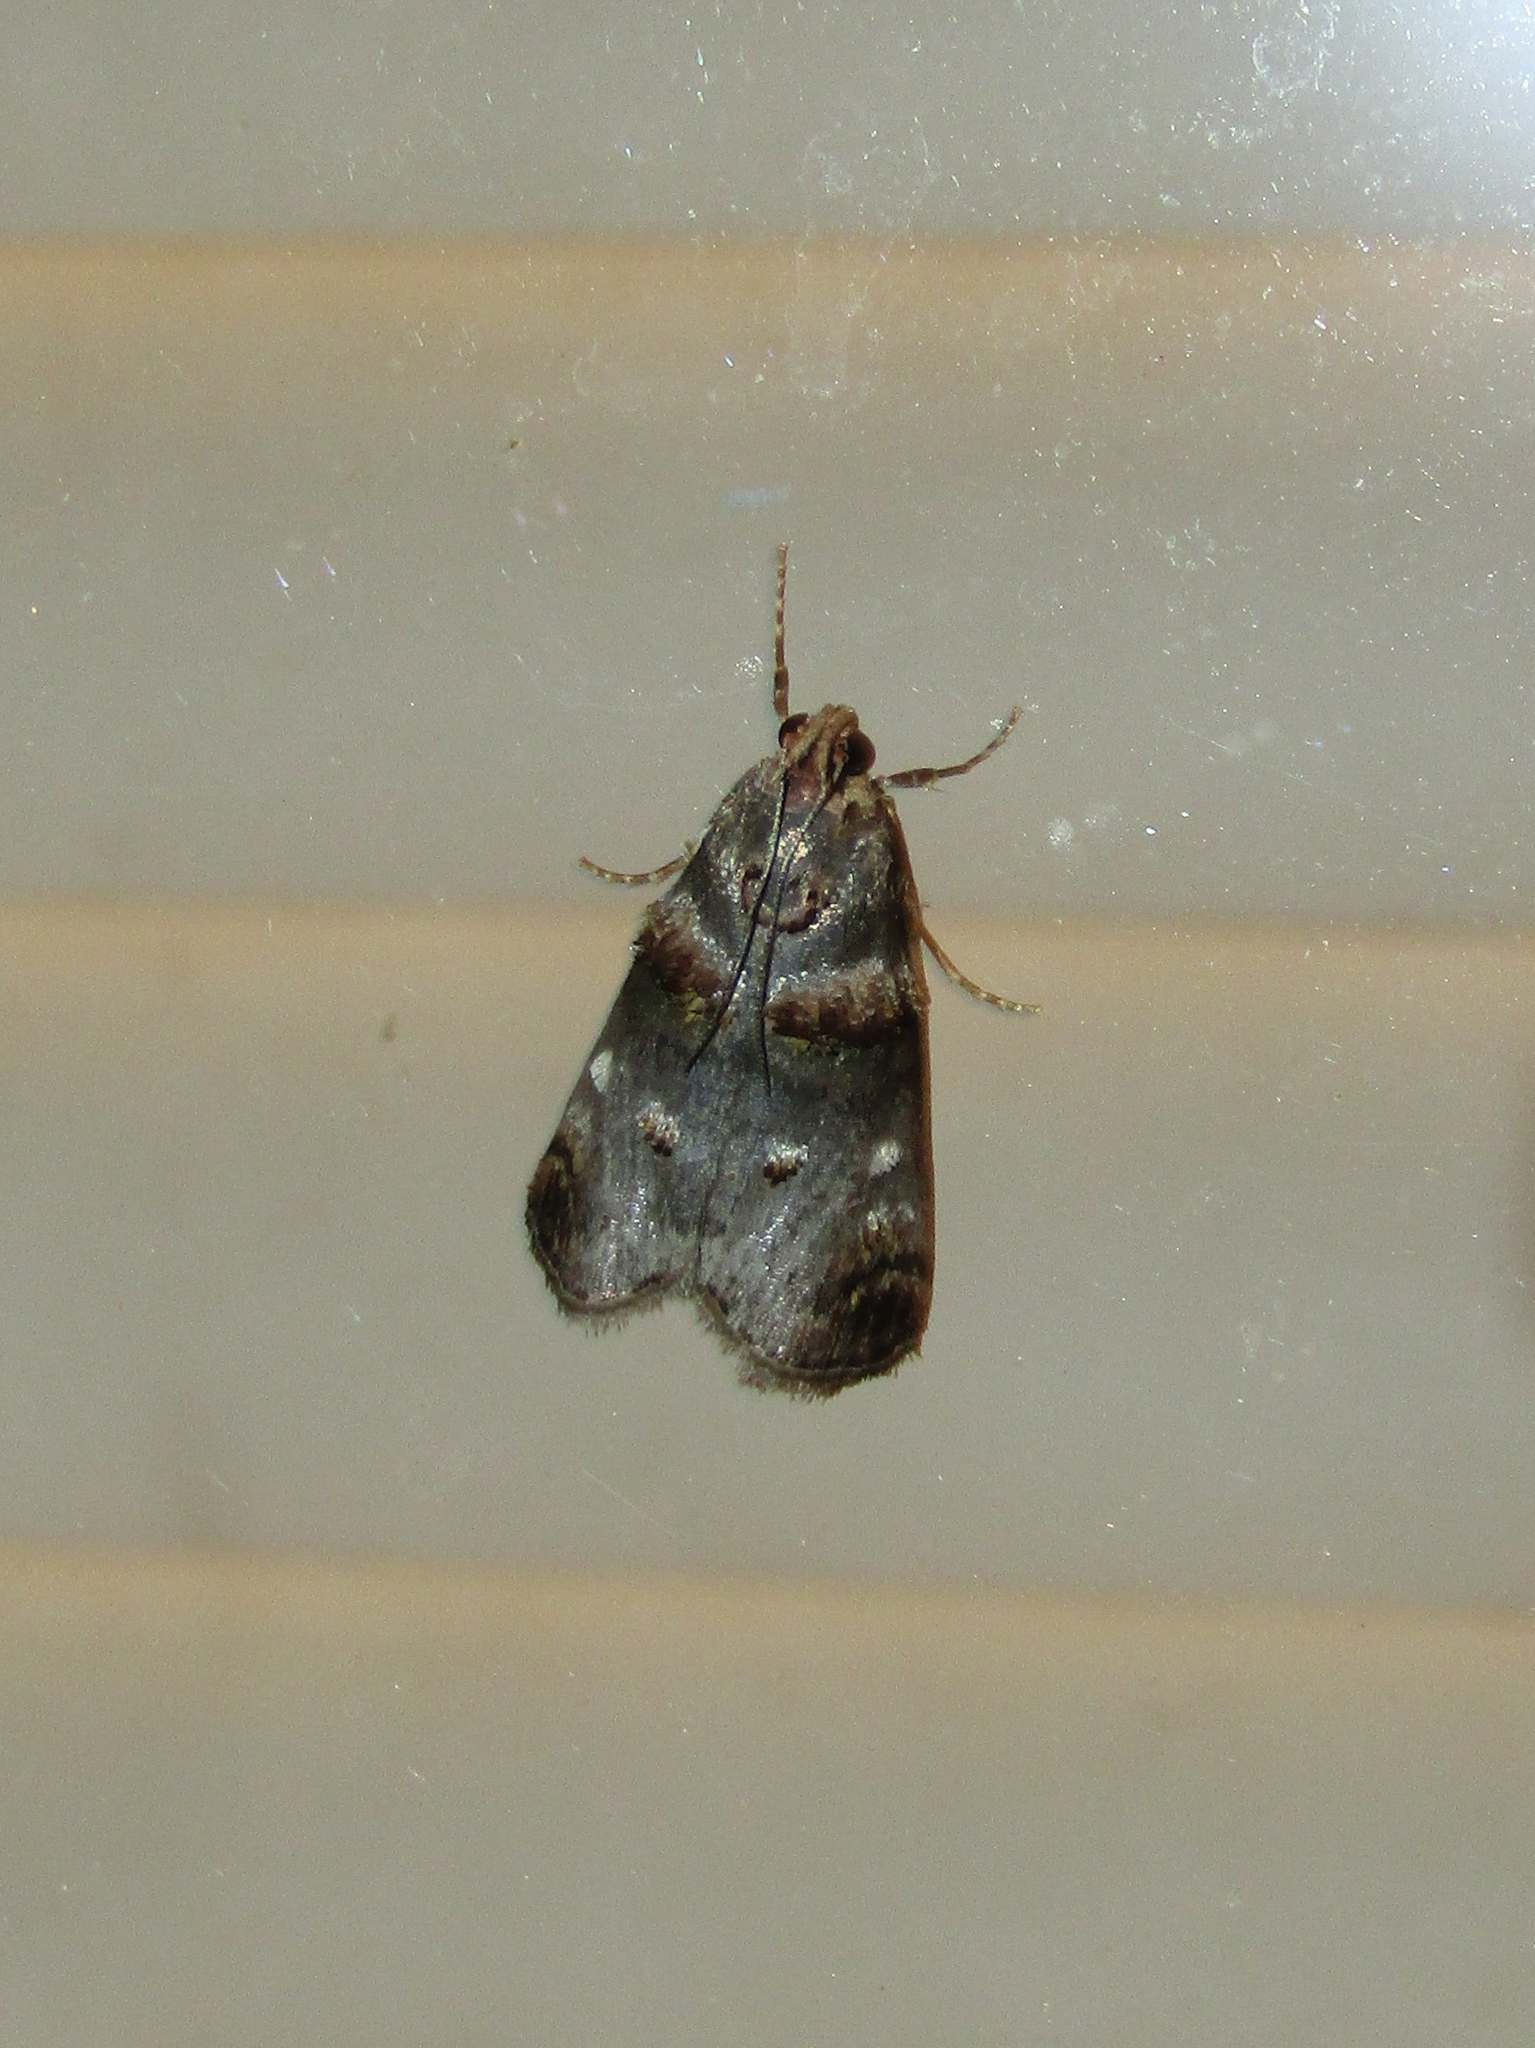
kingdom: Animalia
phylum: Arthropoda
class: Insecta
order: Lepidoptera
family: Pyralidae
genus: Oneida
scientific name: Oneida lunulalis
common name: Orange-tufted oneida moth
